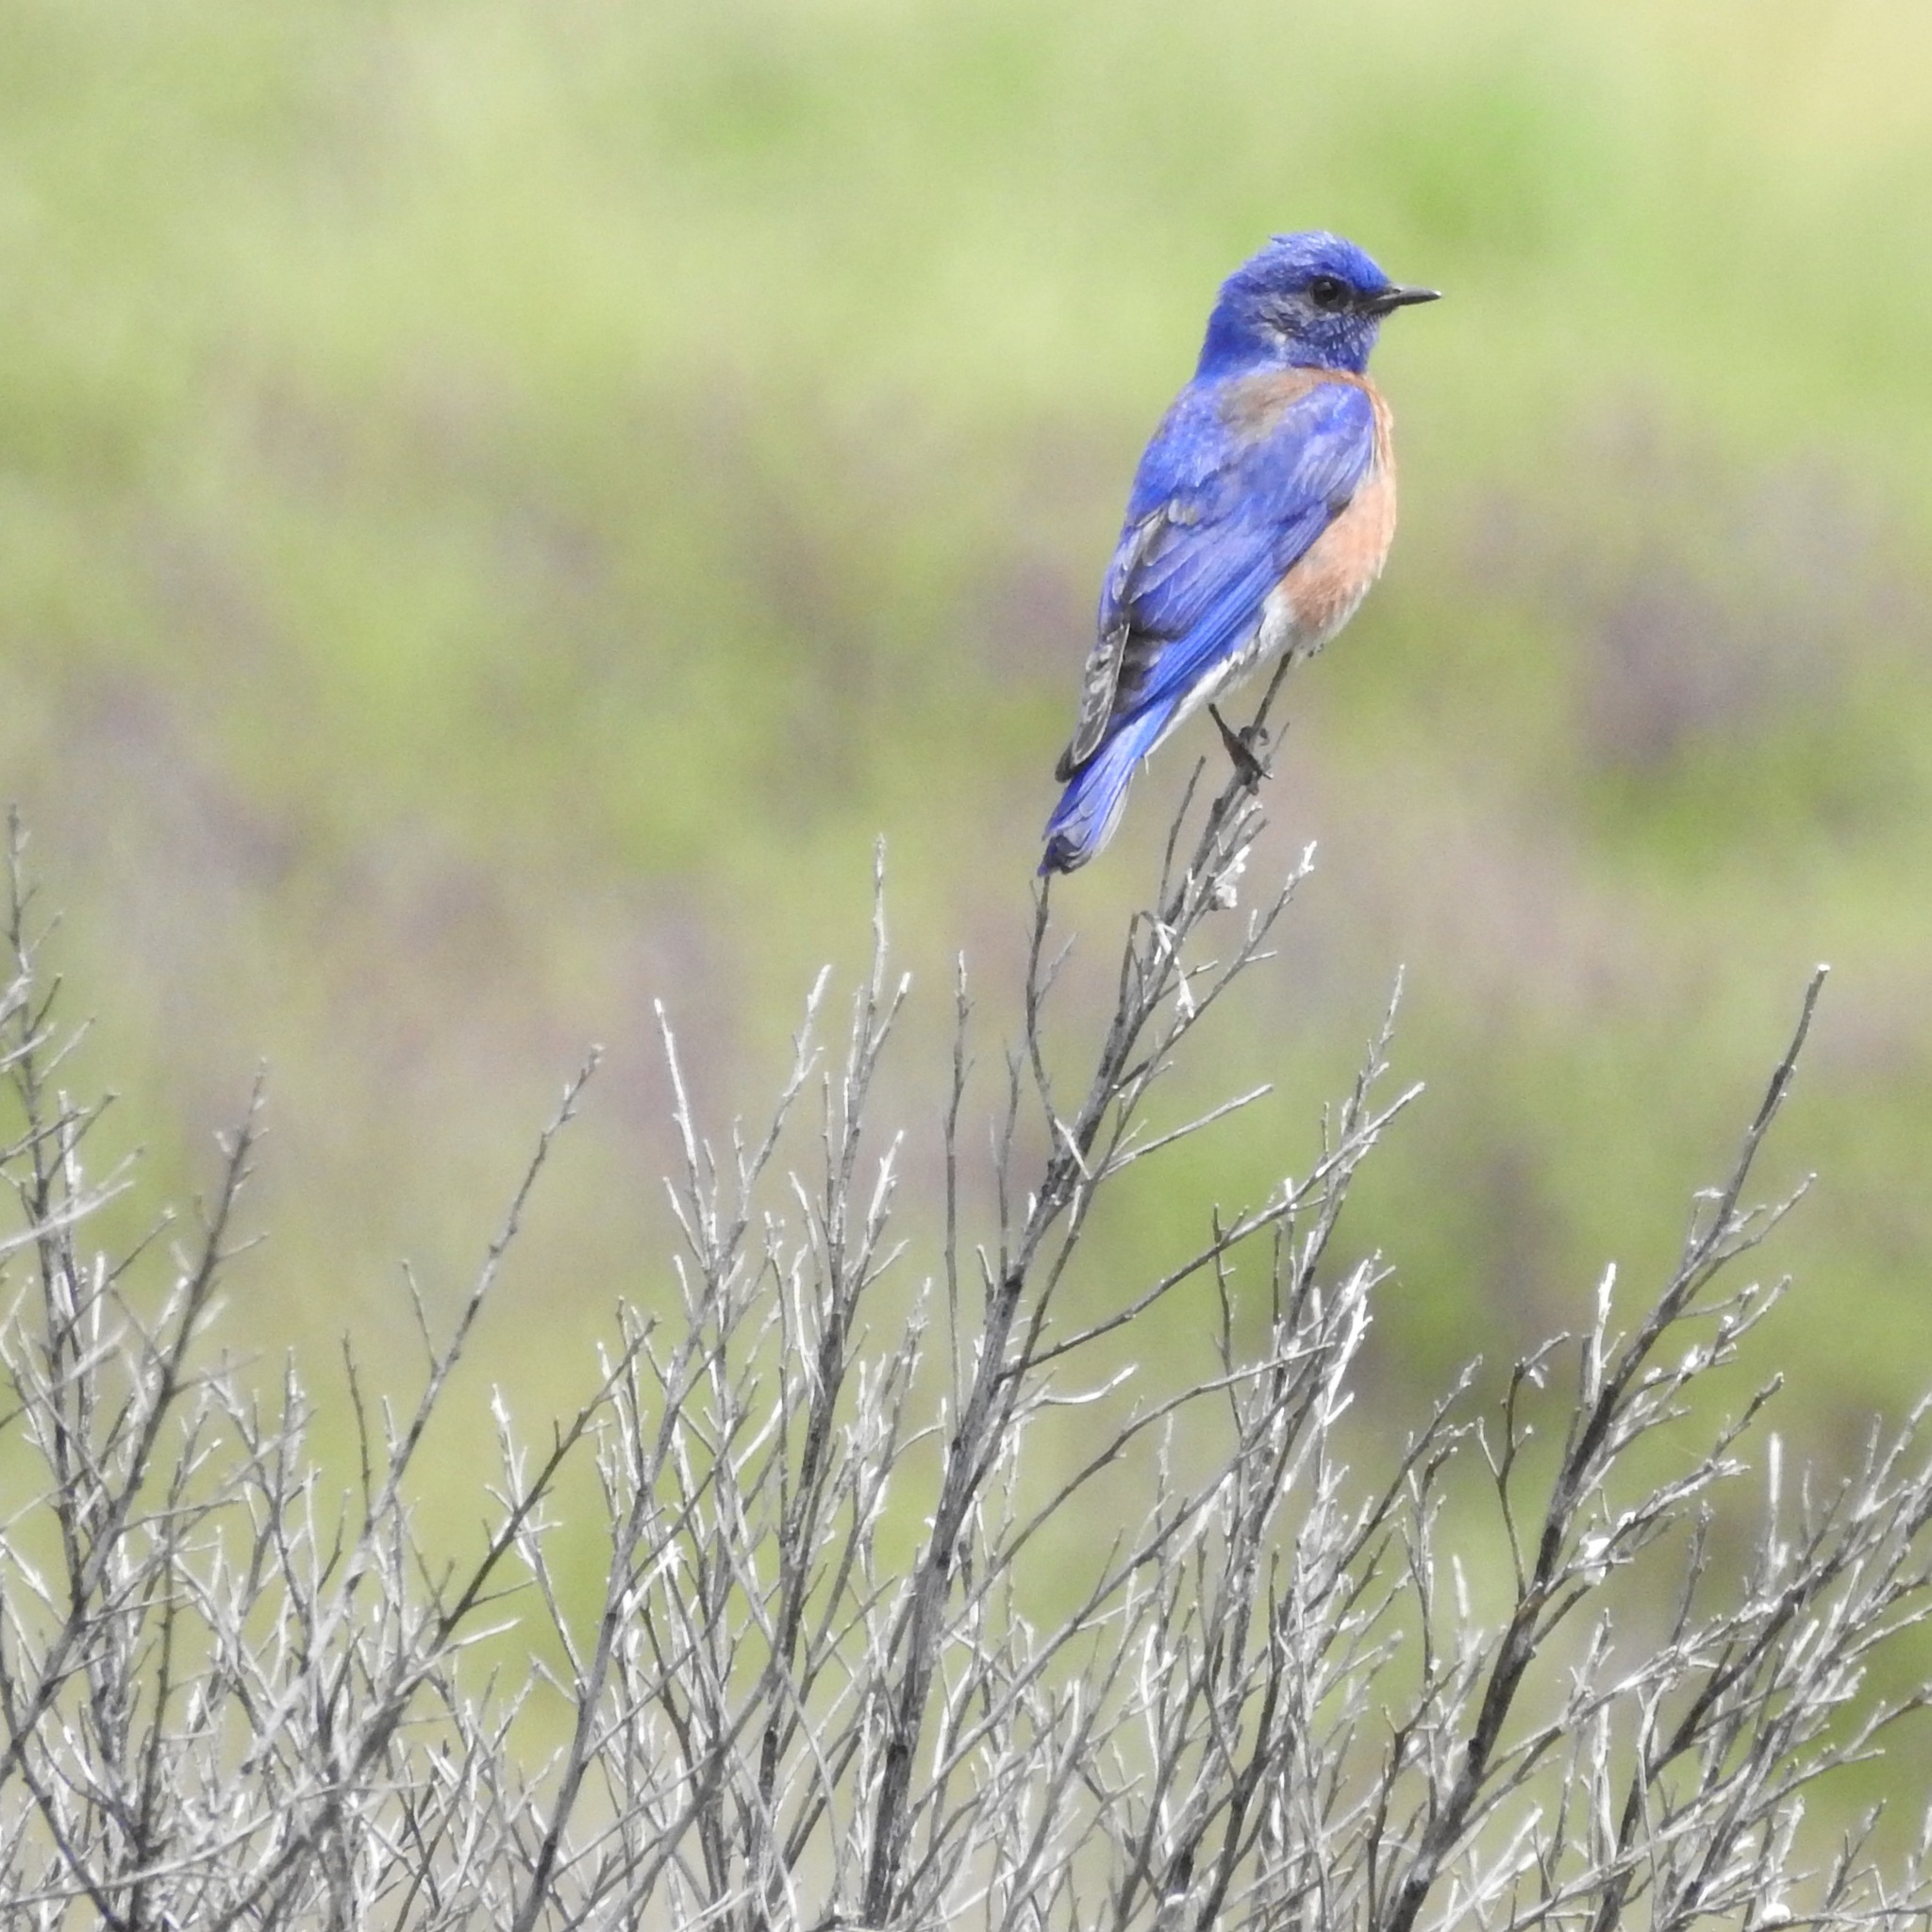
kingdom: Animalia
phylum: Chordata
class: Aves
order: Passeriformes
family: Turdidae
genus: Sialia
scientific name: Sialia mexicana
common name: Western bluebird
